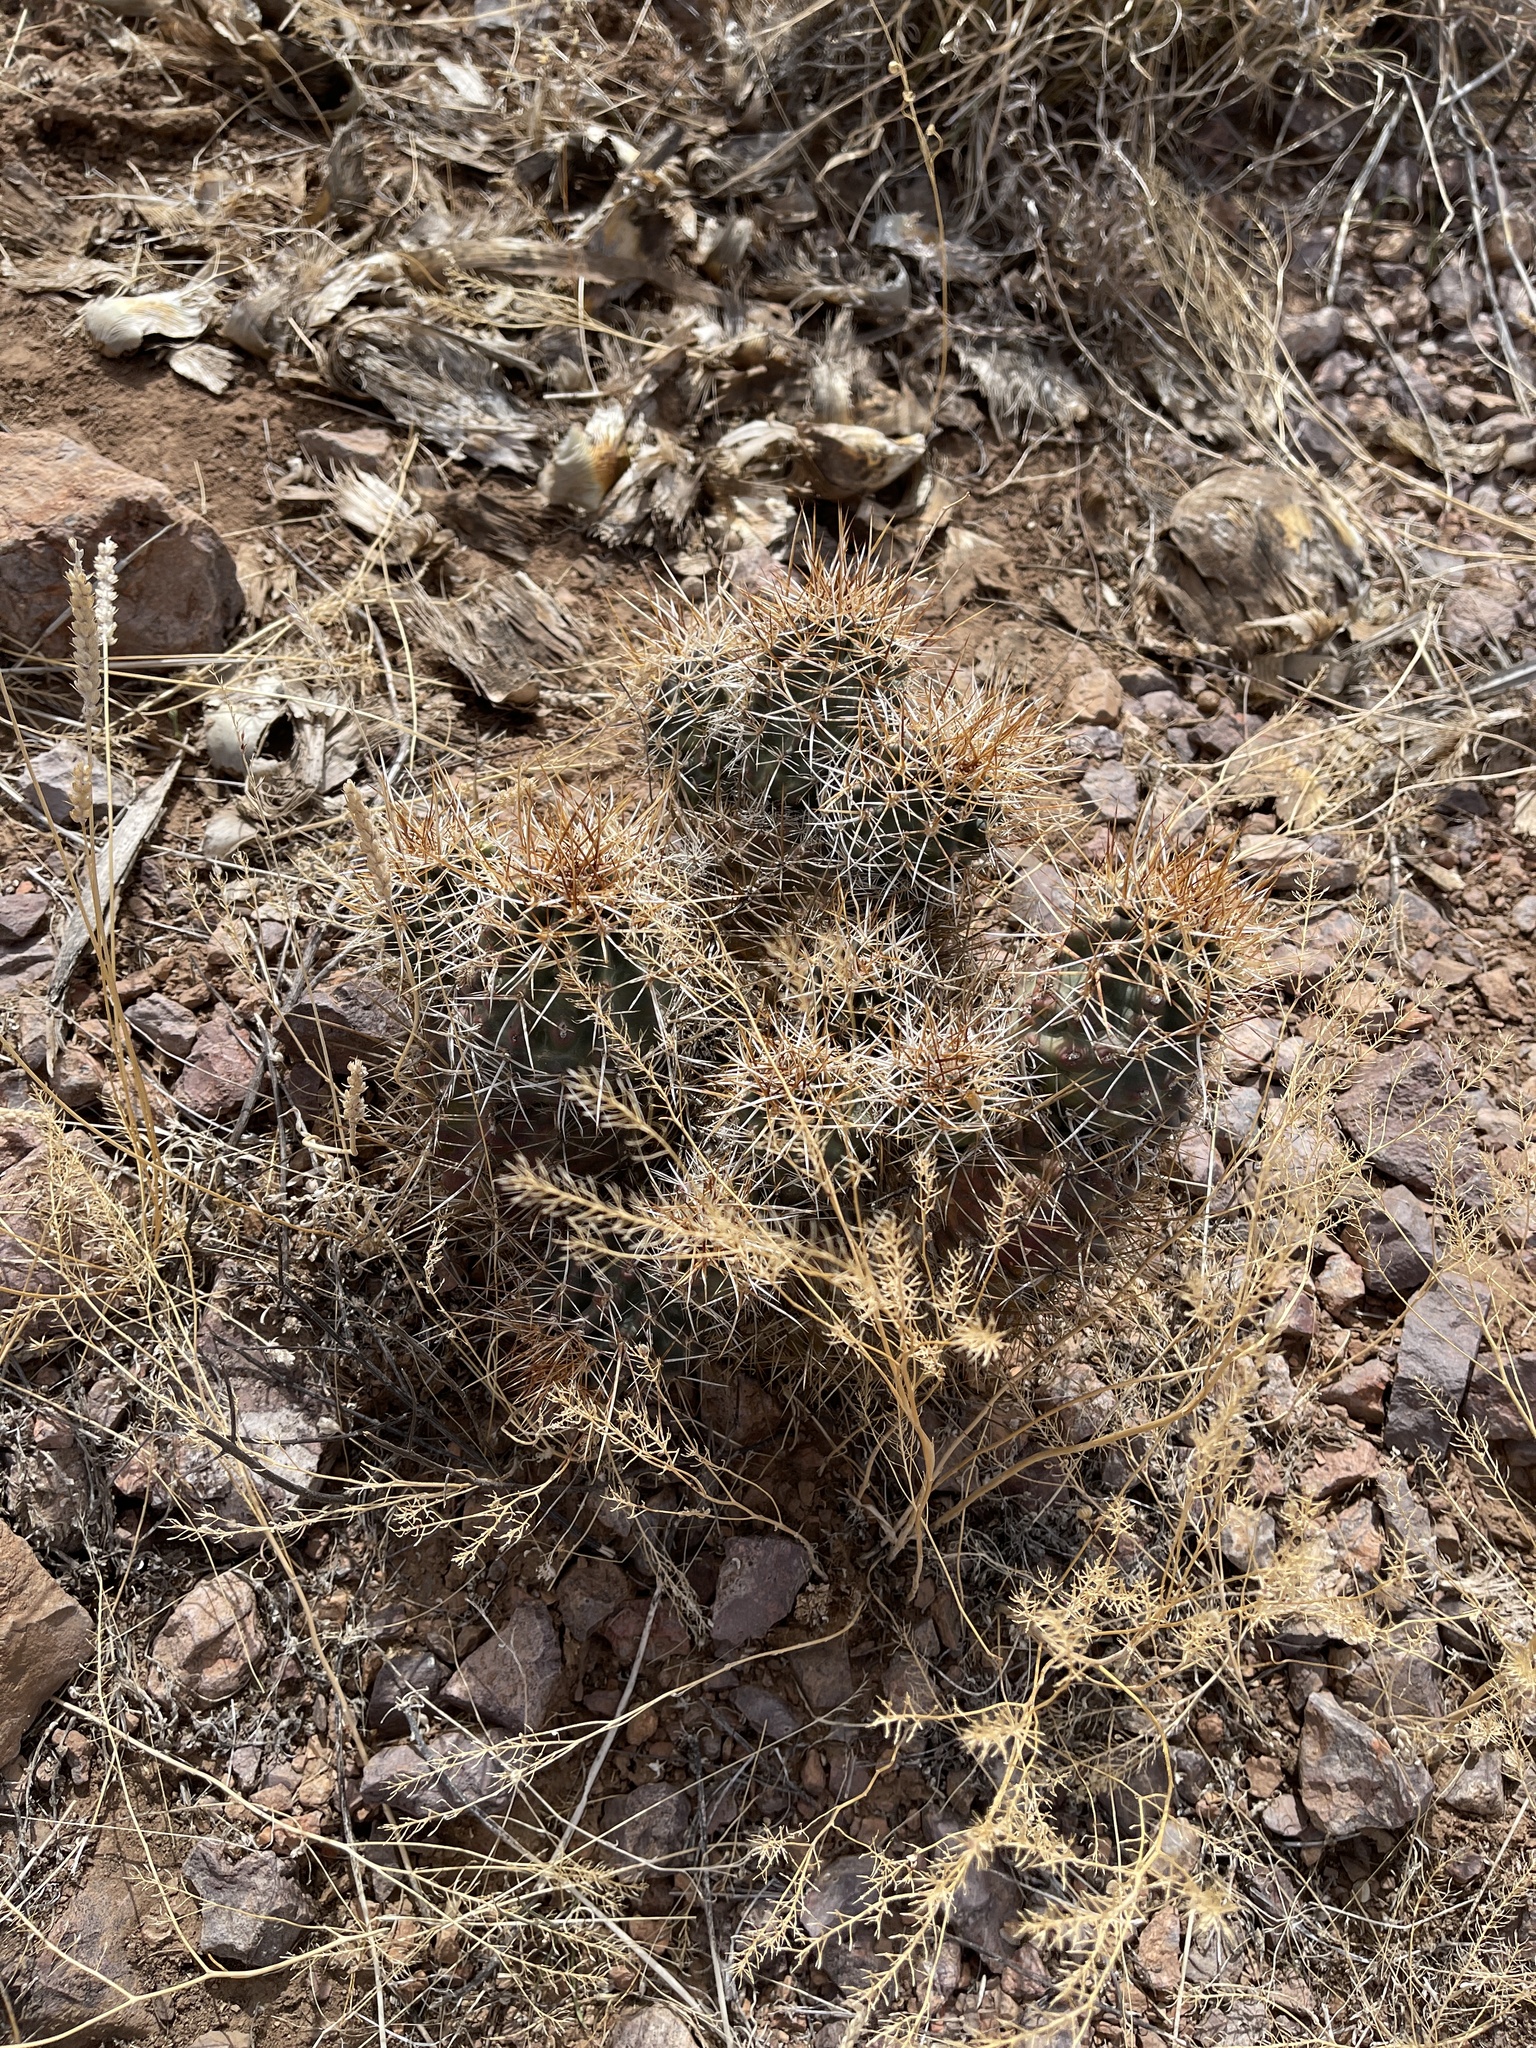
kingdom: Plantae
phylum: Tracheophyta
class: Magnoliopsida
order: Caryophyllales
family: Cactaceae
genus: Echinocereus
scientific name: Echinocereus fendleri
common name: Fendler's hedgehog cactus
